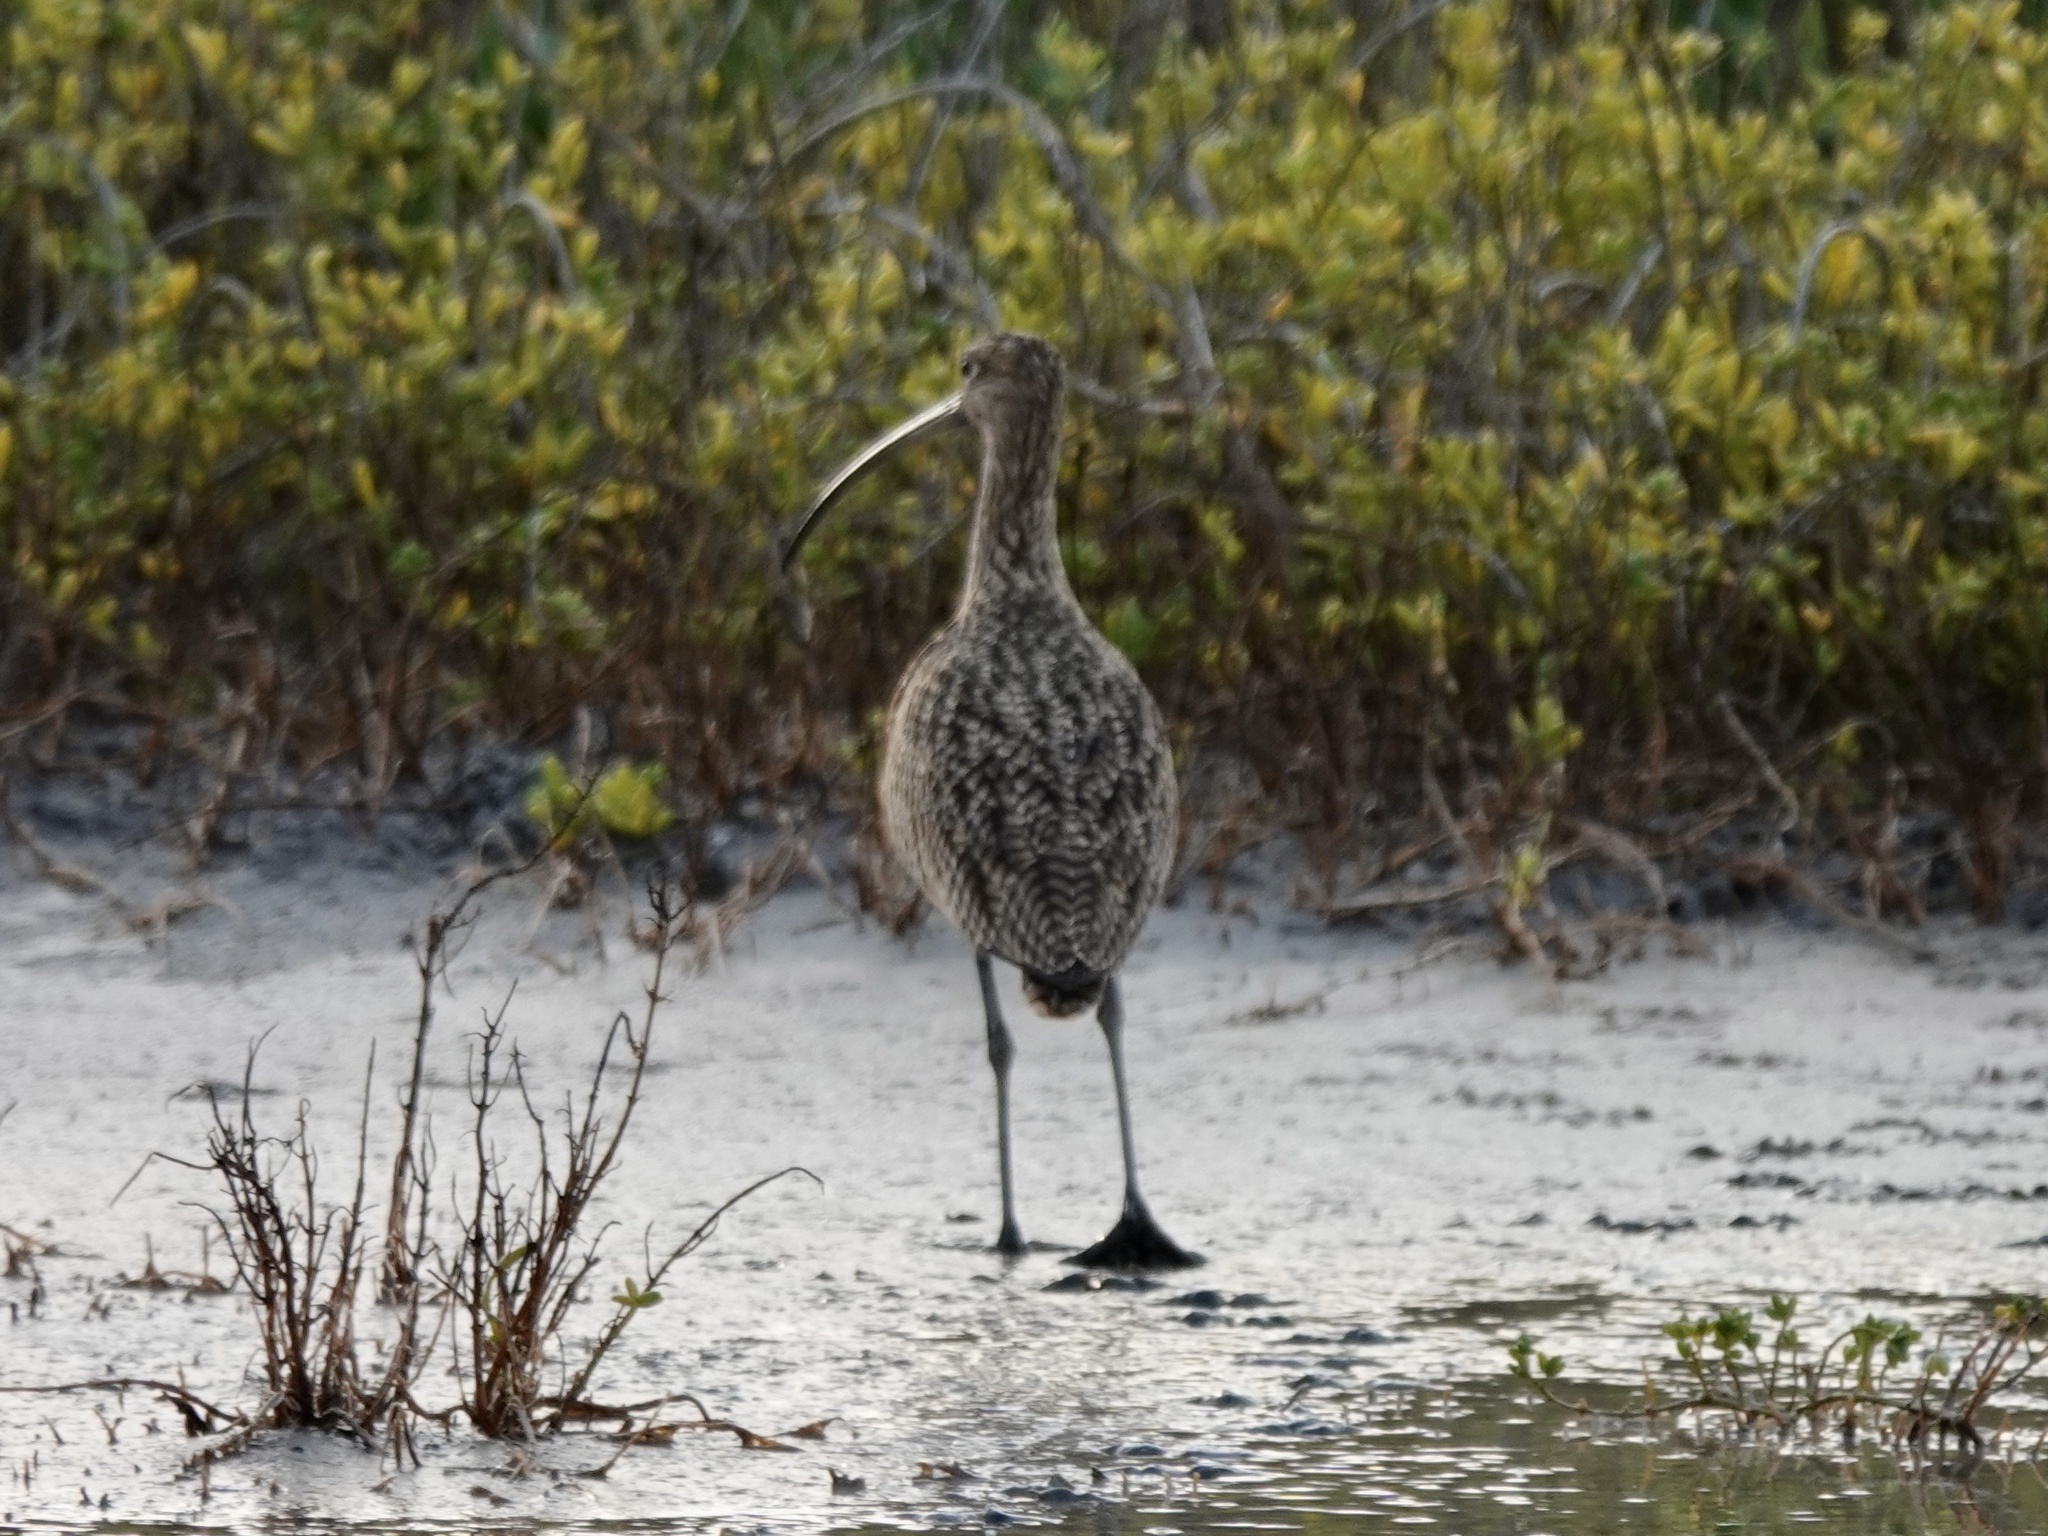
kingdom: Animalia
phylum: Chordata
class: Aves
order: Charadriiformes
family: Scolopacidae
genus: Numenius
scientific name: Numenius americanus
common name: Long-billed curlew
